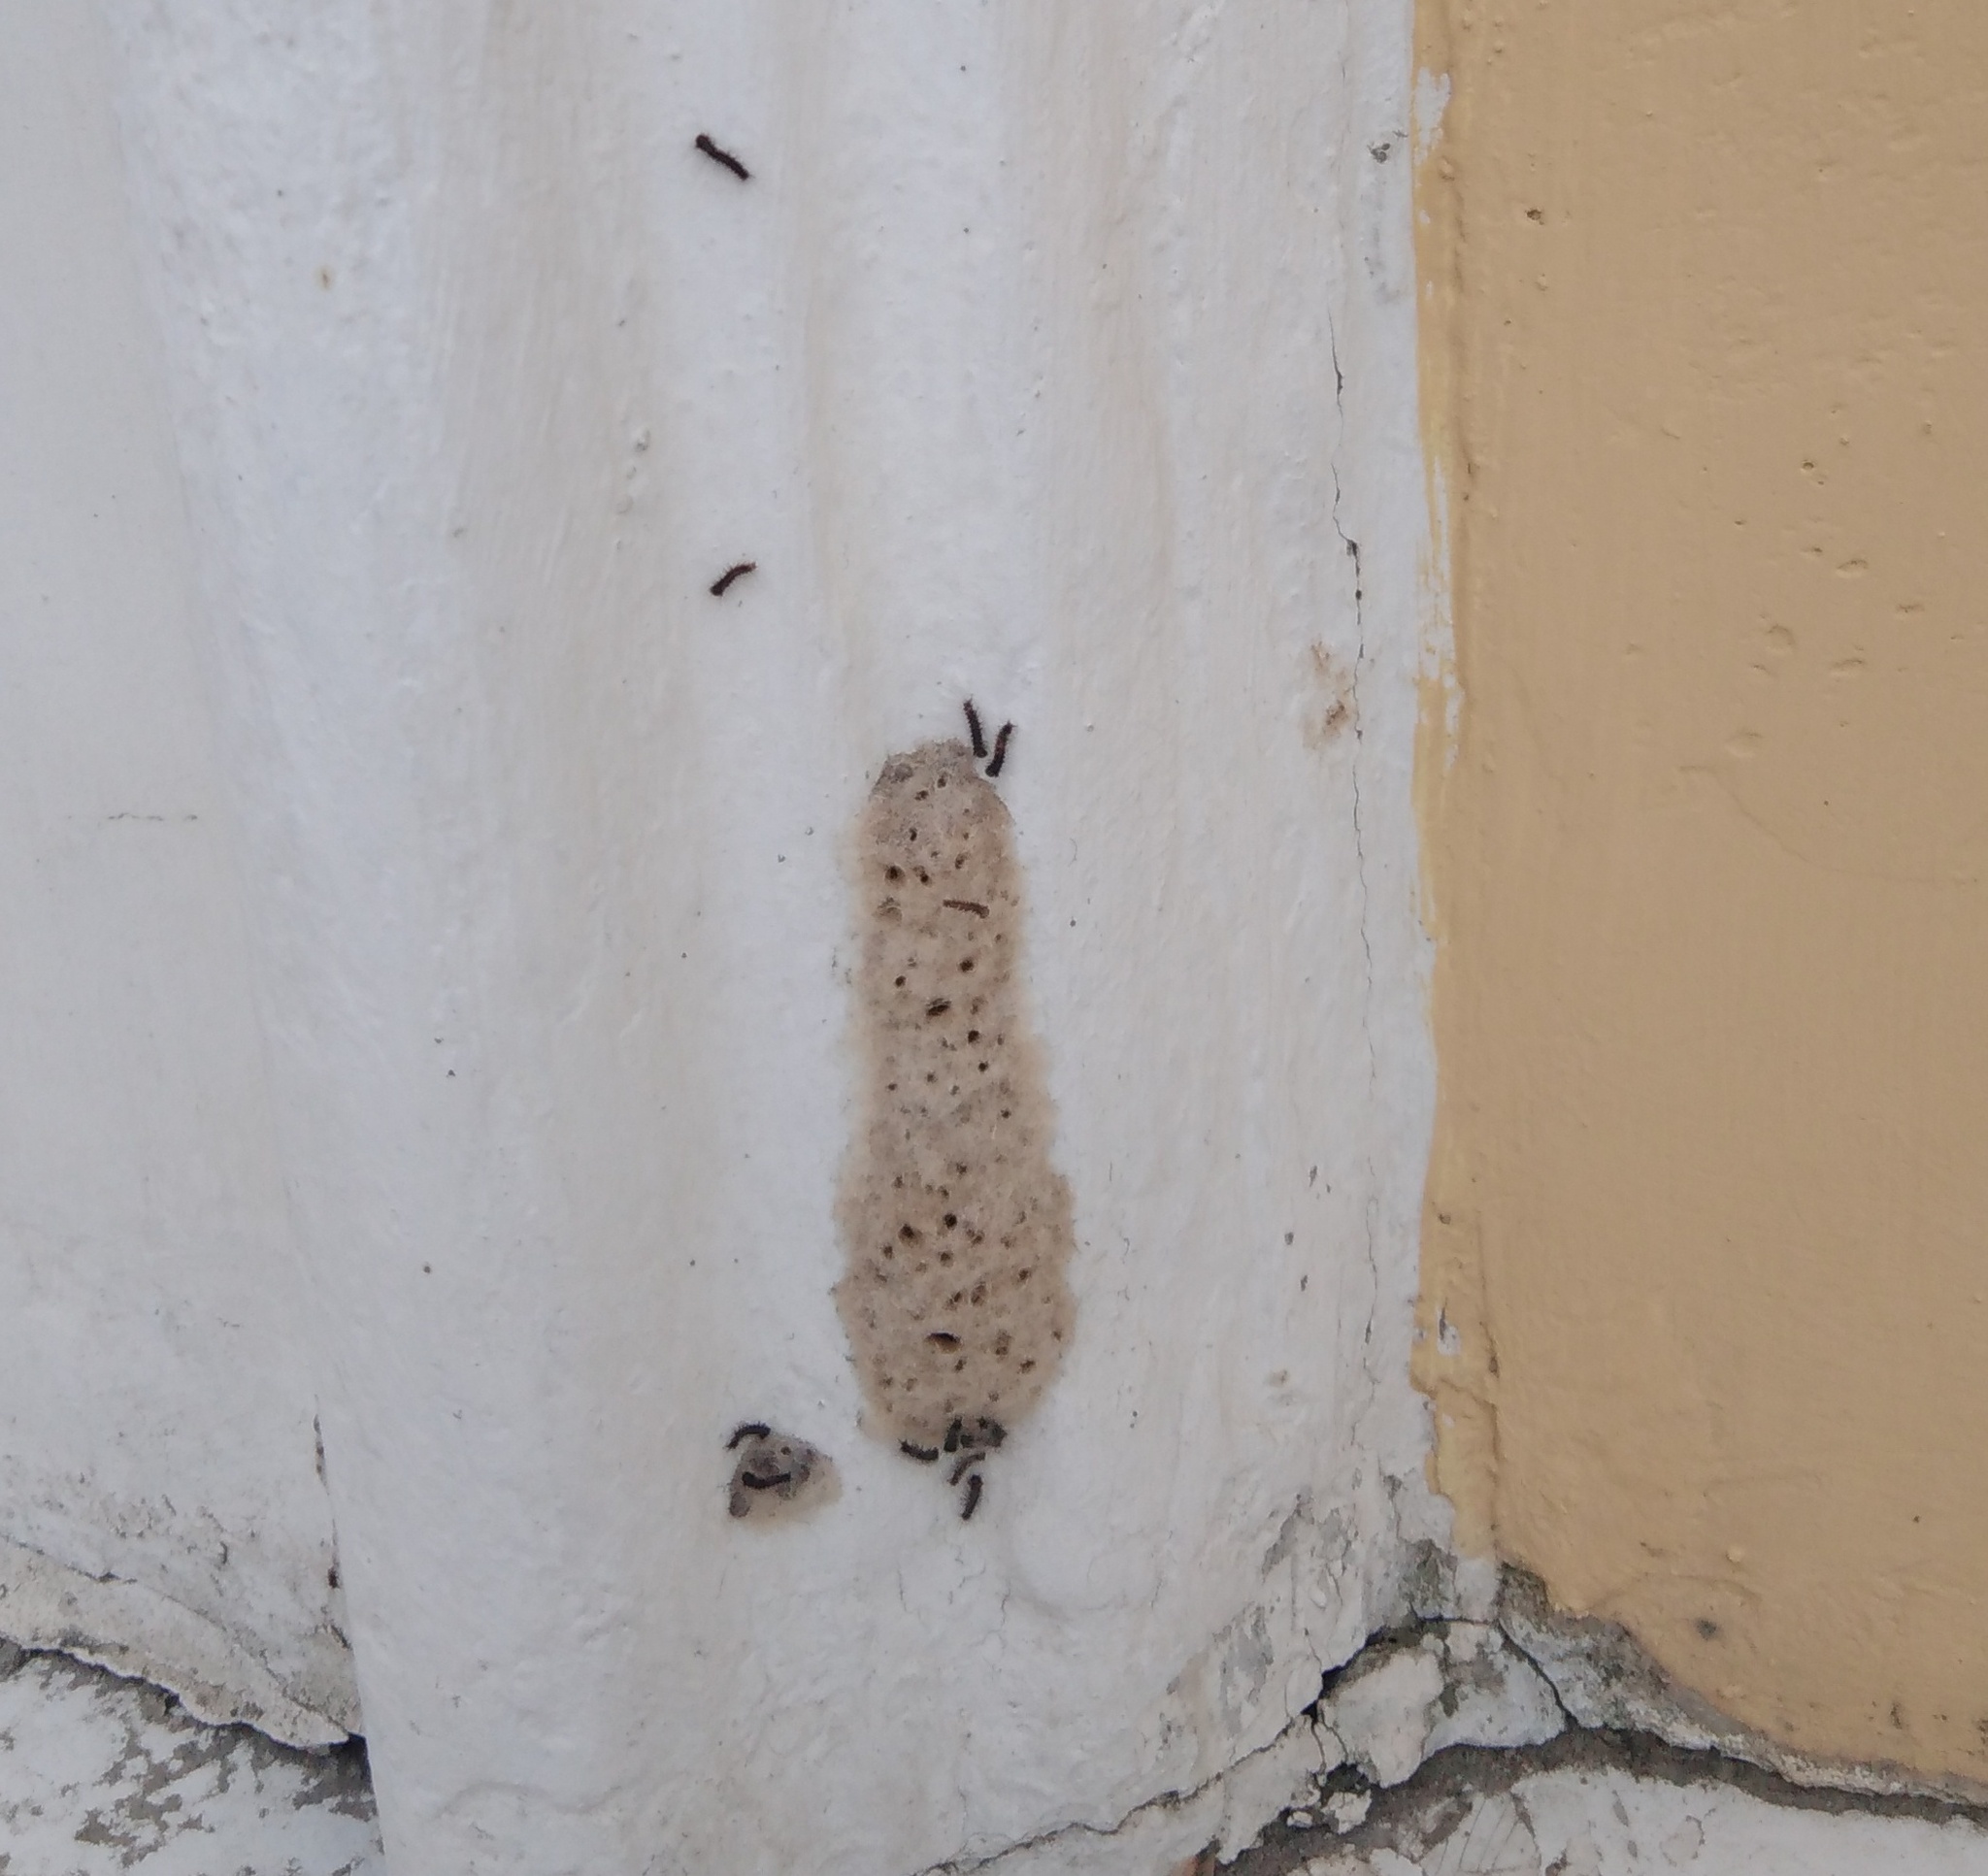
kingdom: Animalia
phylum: Arthropoda
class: Insecta
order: Lepidoptera
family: Erebidae
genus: Lymantria
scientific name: Lymantria dispar
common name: Gypsy moth
